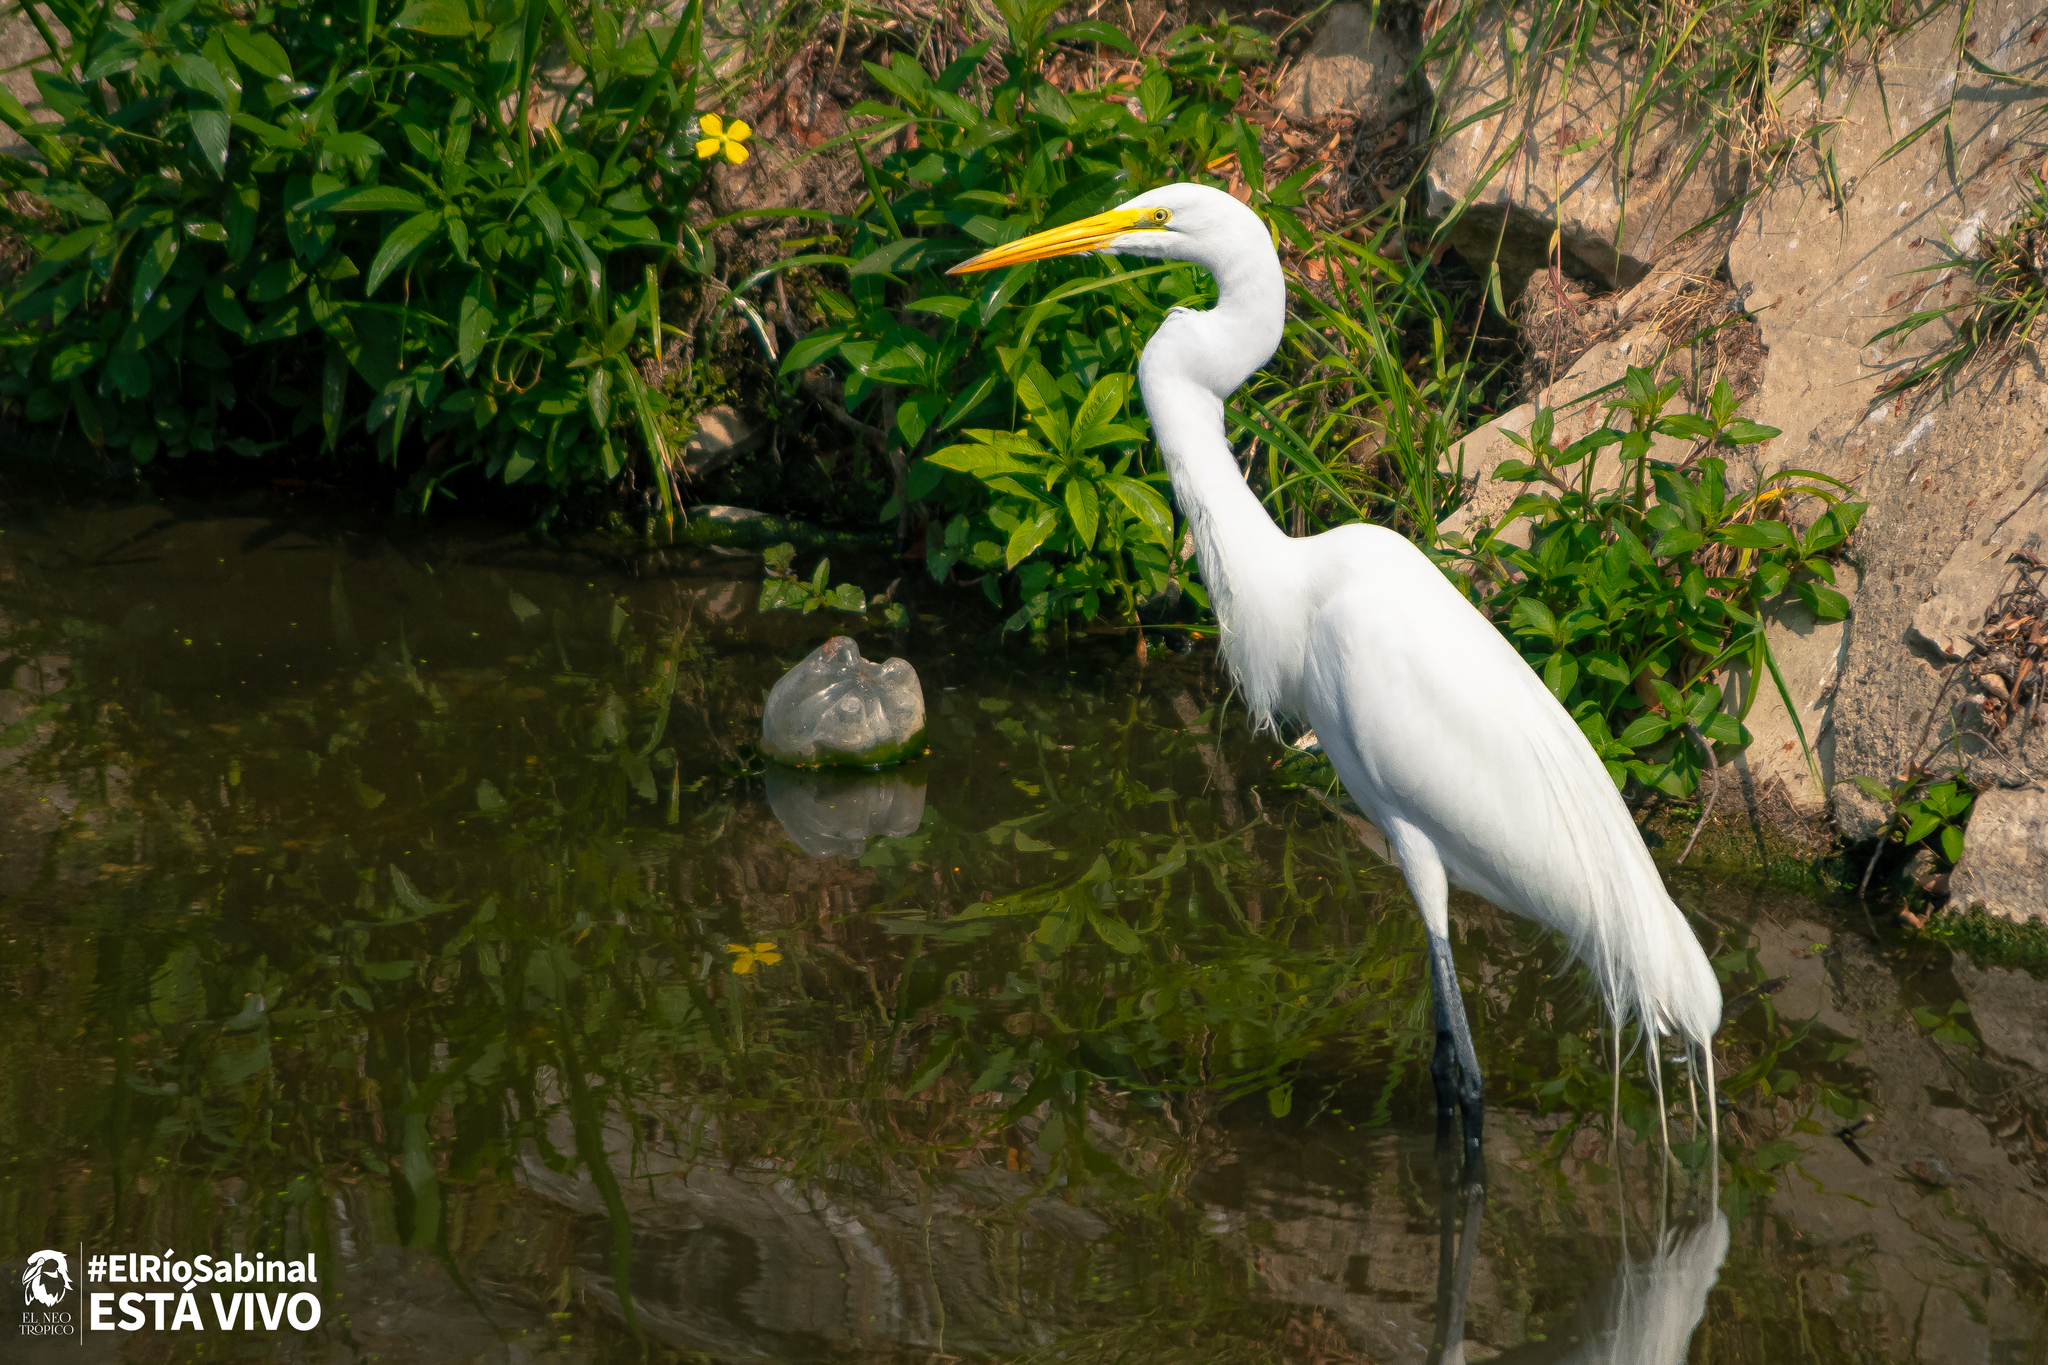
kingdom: Animalia
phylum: Chordata
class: Aves
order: Pelecaniformes
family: Ardeidae
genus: Ardea
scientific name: Ardea alba
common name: Great egret
